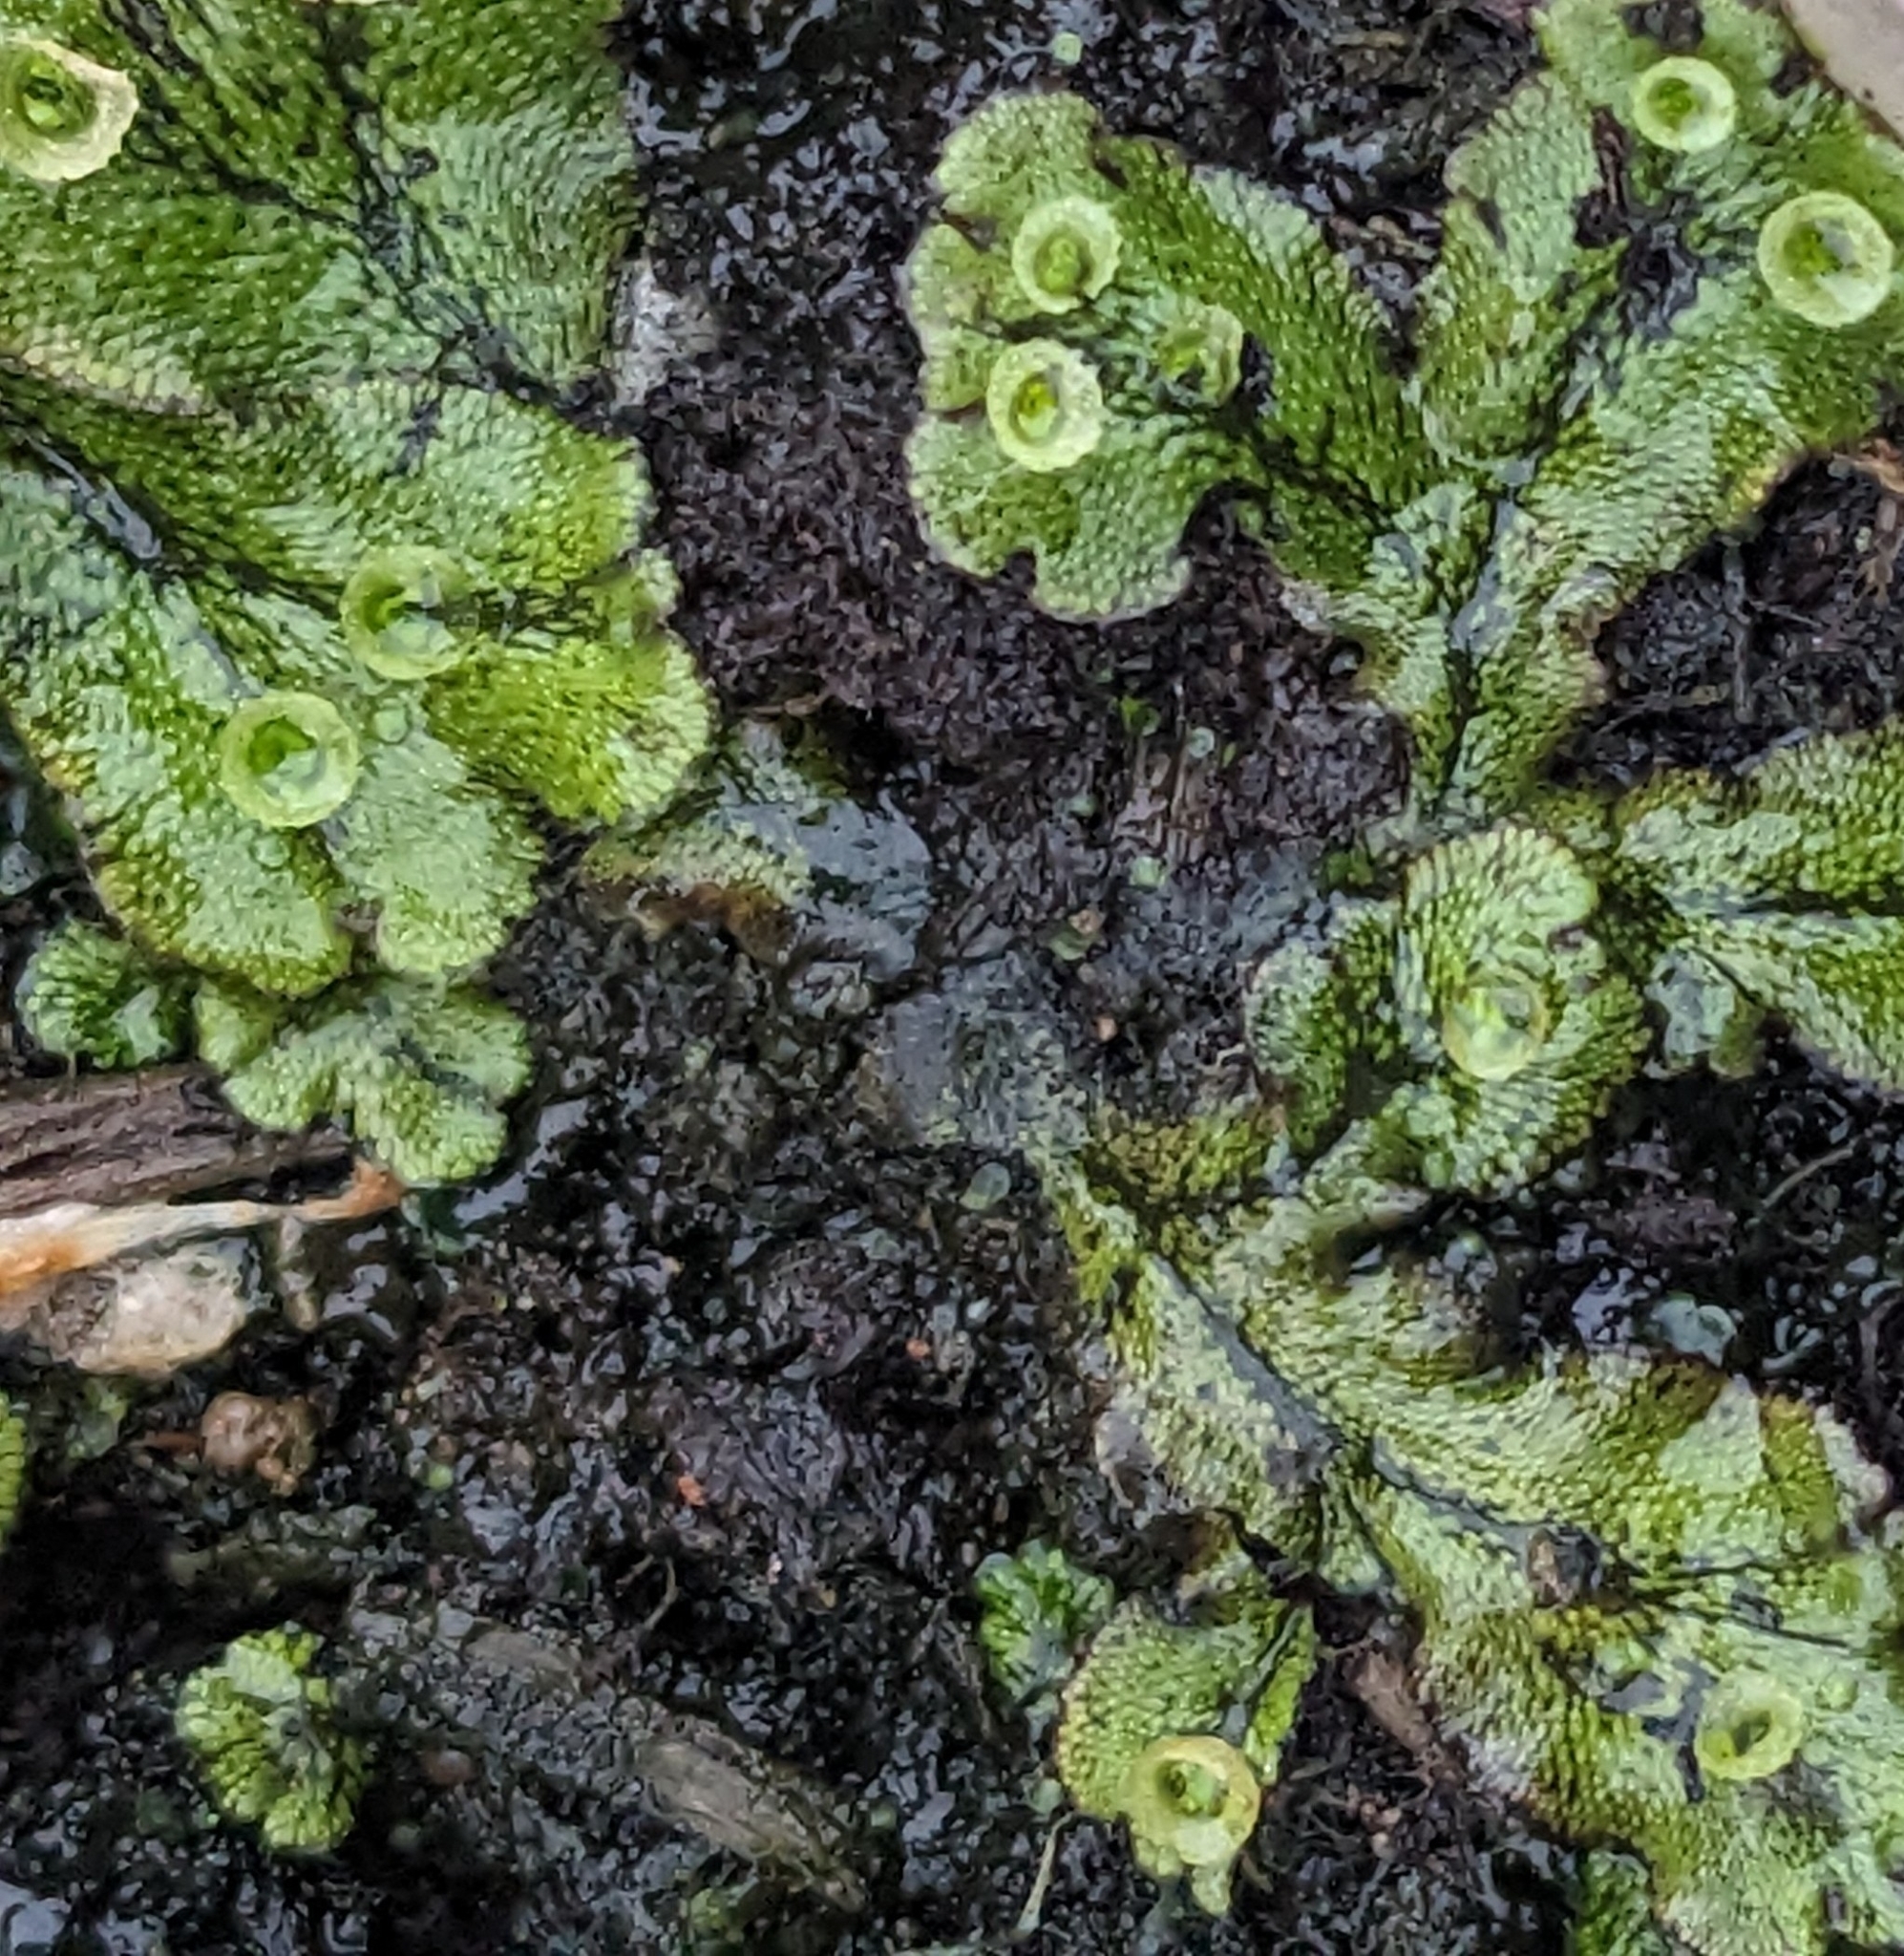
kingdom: Plantae
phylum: Marchantiophyta
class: Marchantiopsida
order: Marchantiales
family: Marchantiaceae
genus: Marchantia
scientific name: Marchantia polymorpha
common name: Common liverwort
